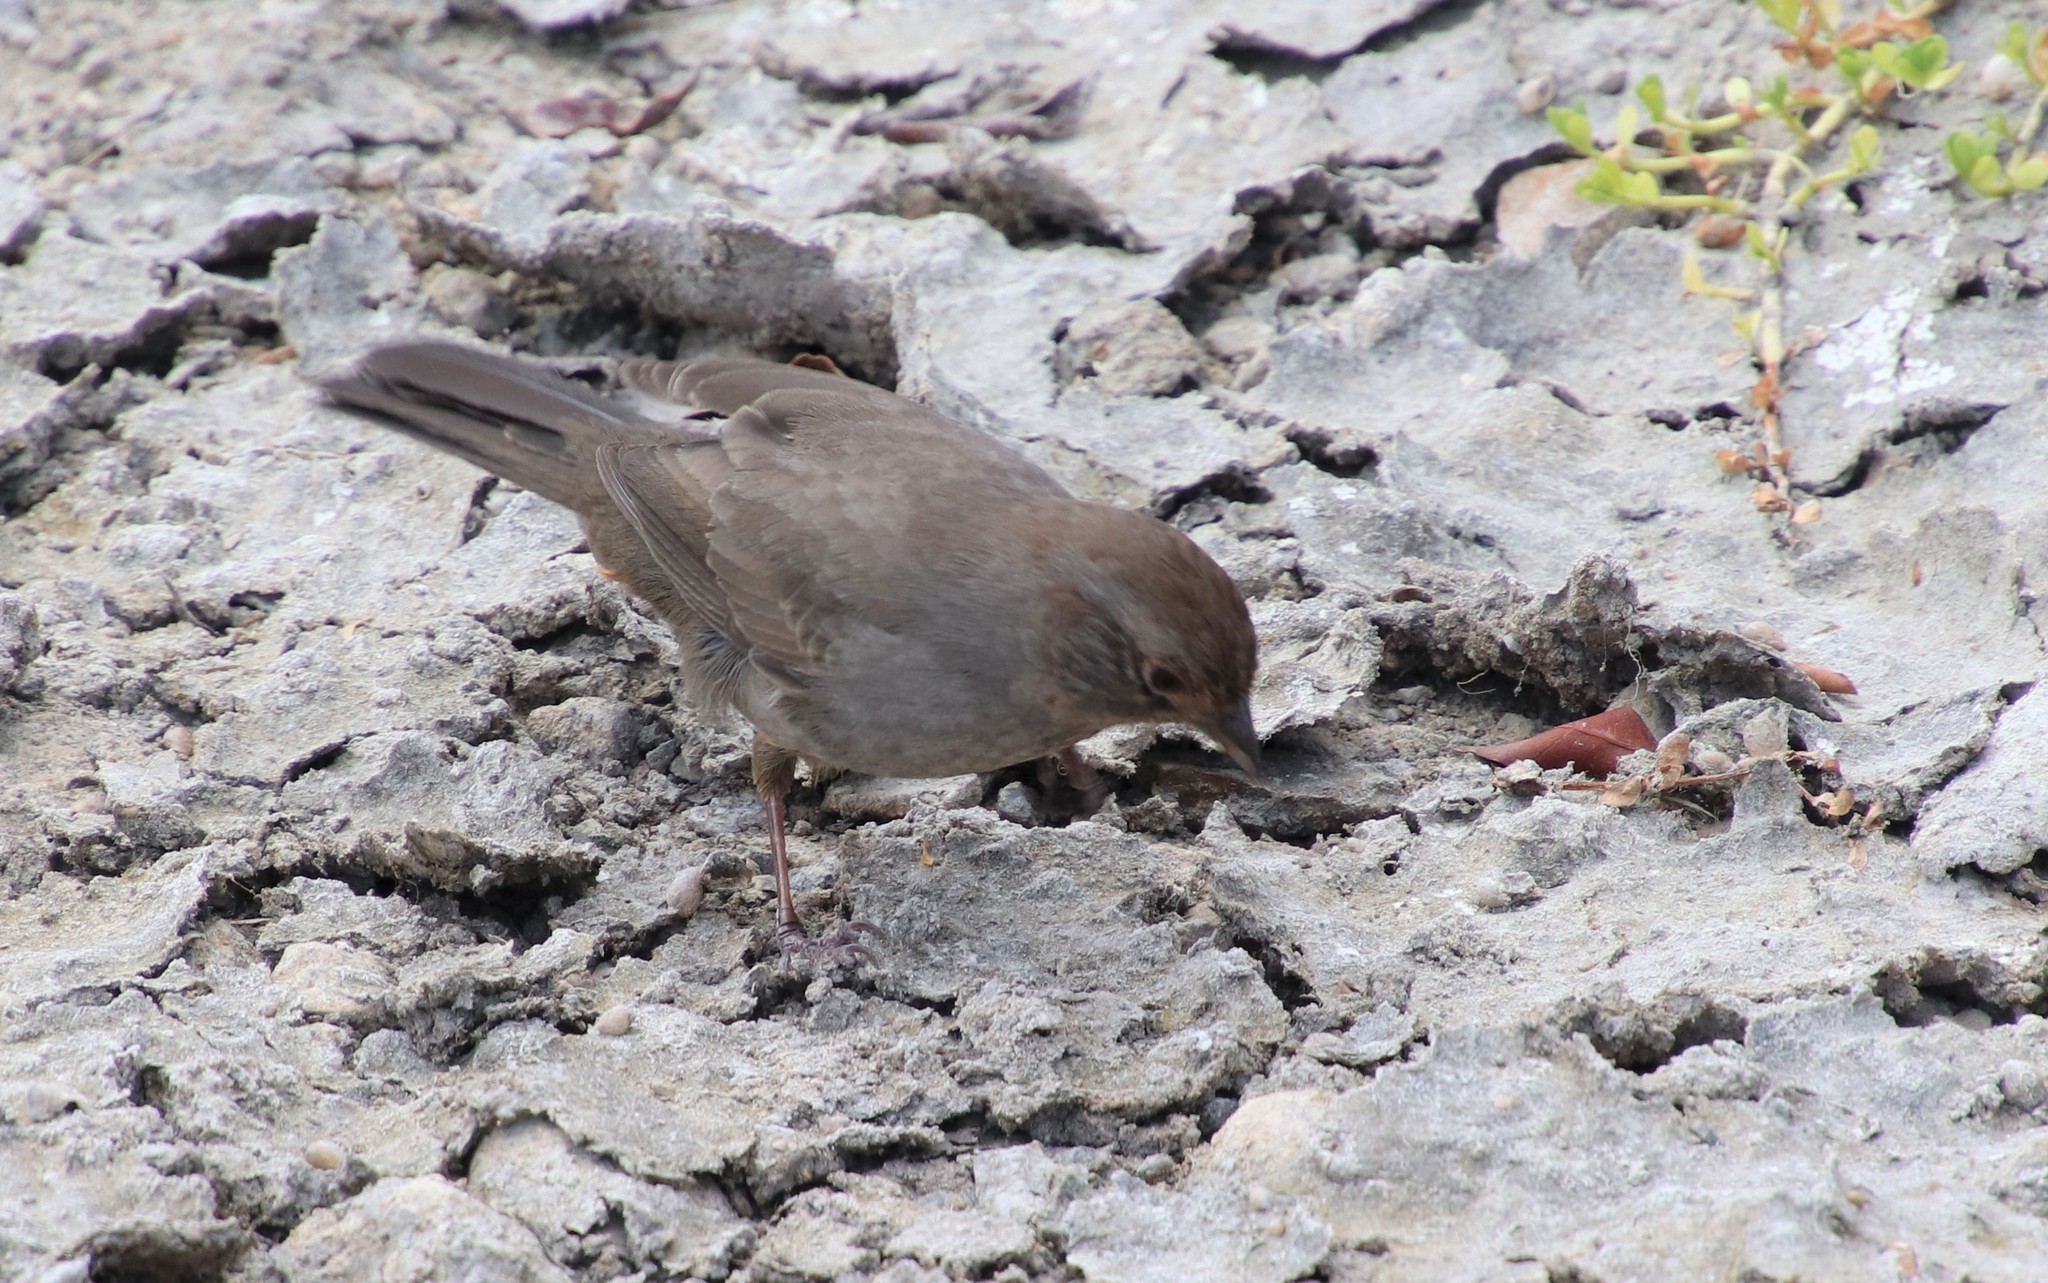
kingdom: Animalia
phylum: Chordata
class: Aves
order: Passeriformes
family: Passerellidae
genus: Melozone
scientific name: Melozone crissalis
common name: California towhee
